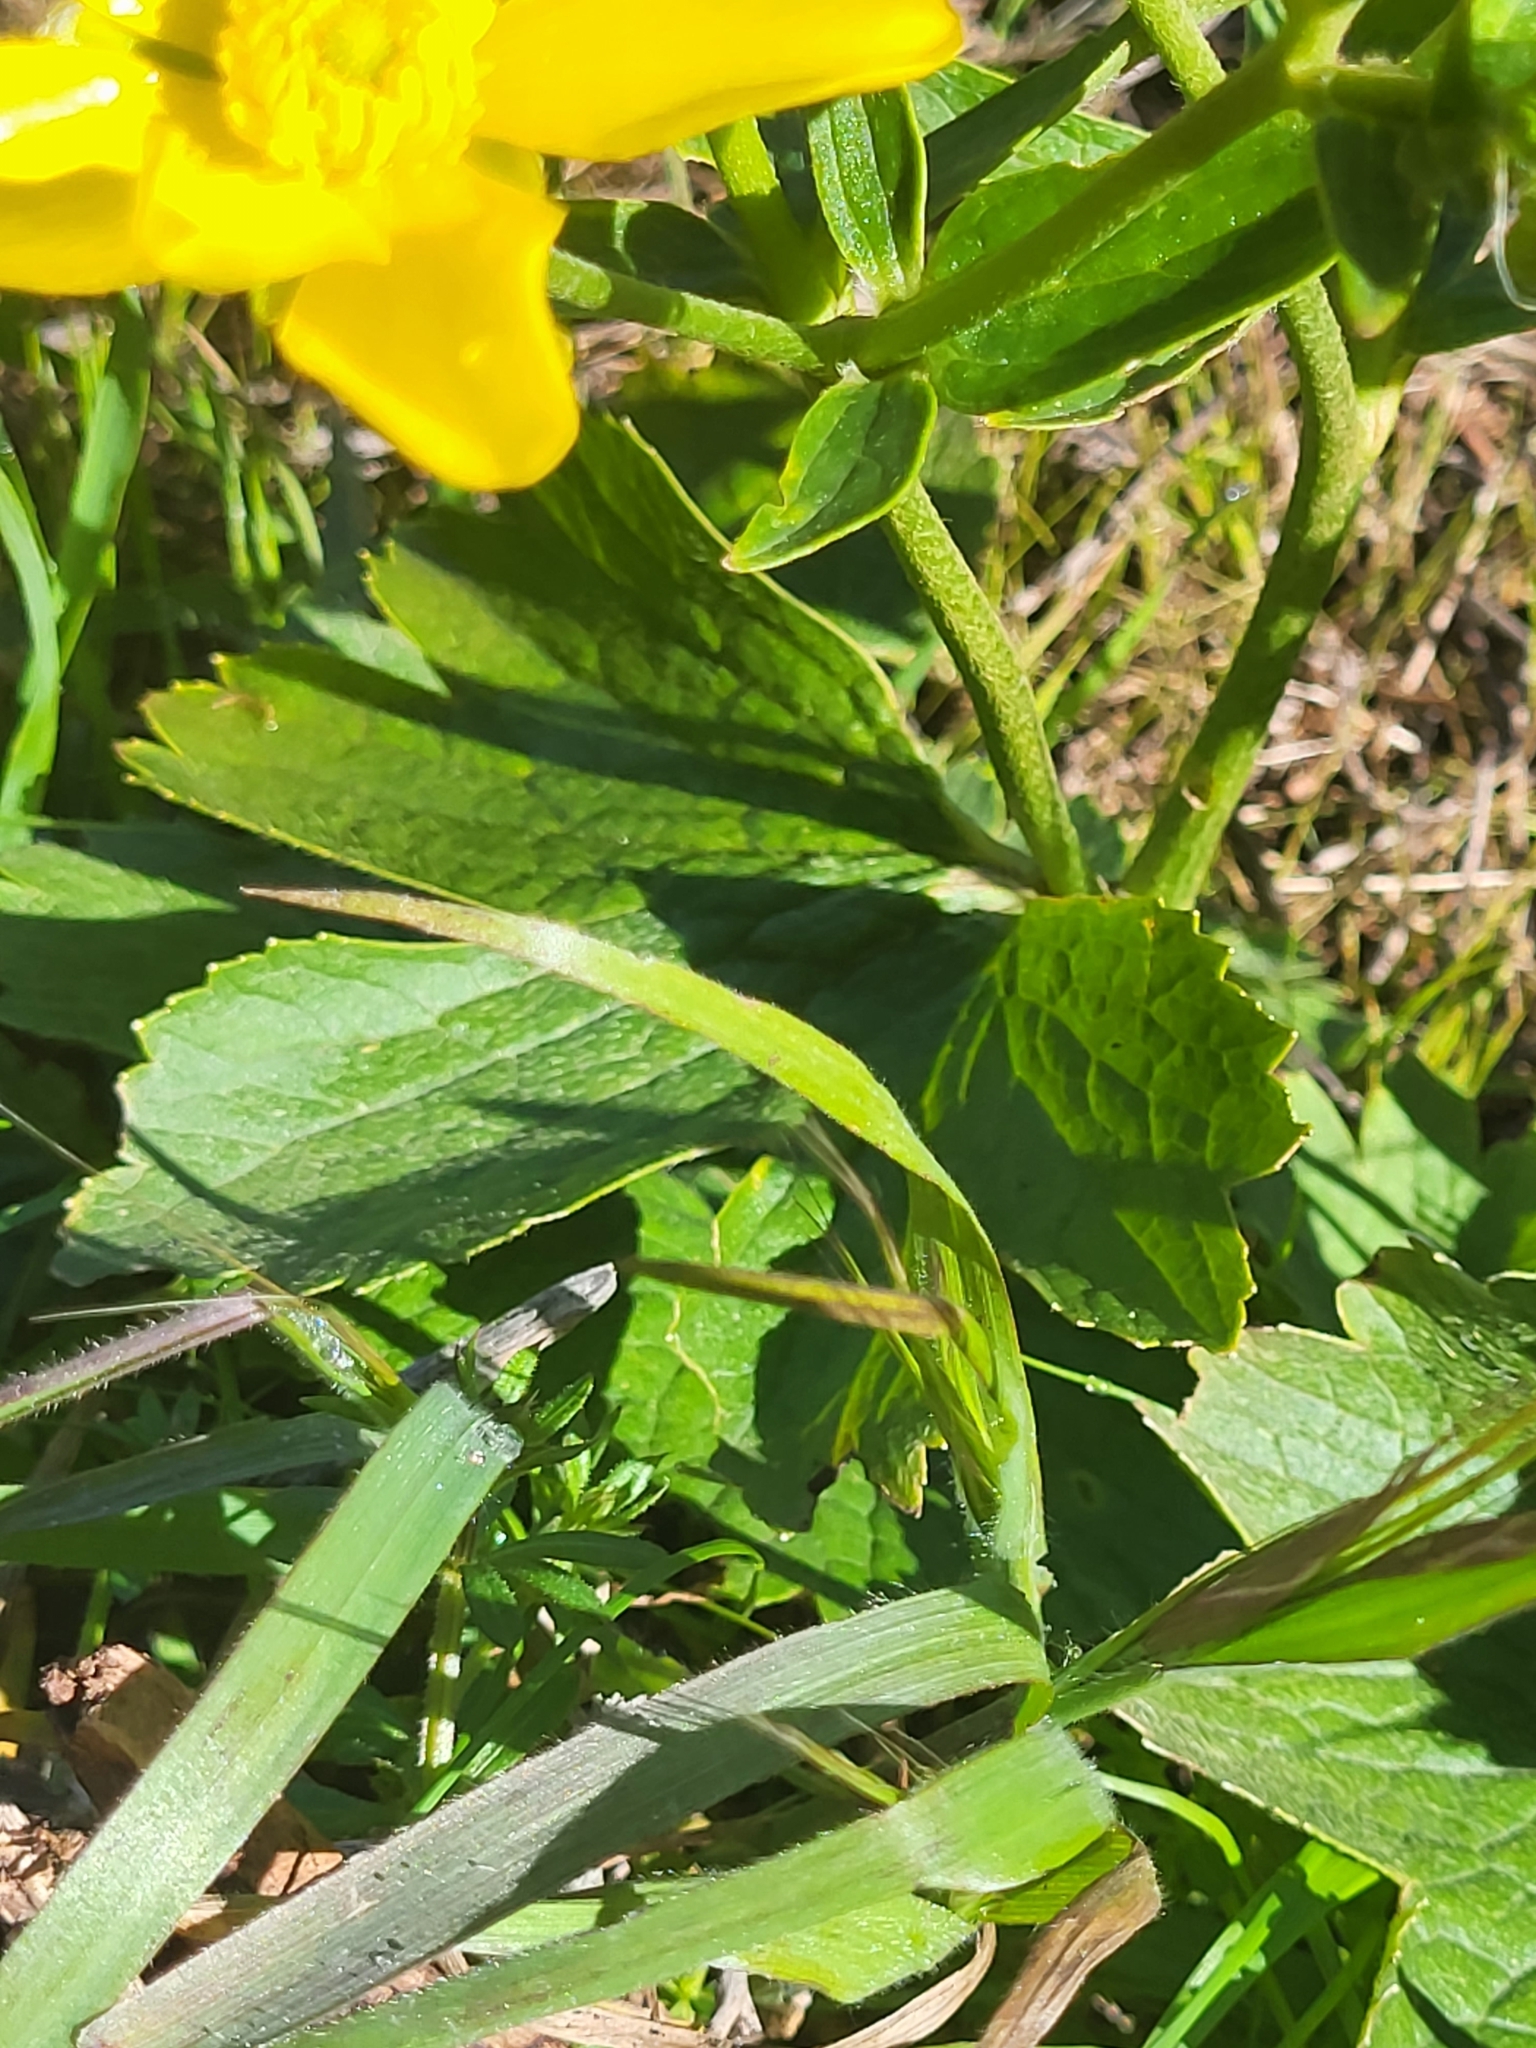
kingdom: Plantae
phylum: Tracheophyta
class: Magnoliopsida
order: Ranunculales
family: Ranunculaceae
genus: Ranunculus
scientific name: Ranunculus cortusifolius
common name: Azores buttercup
